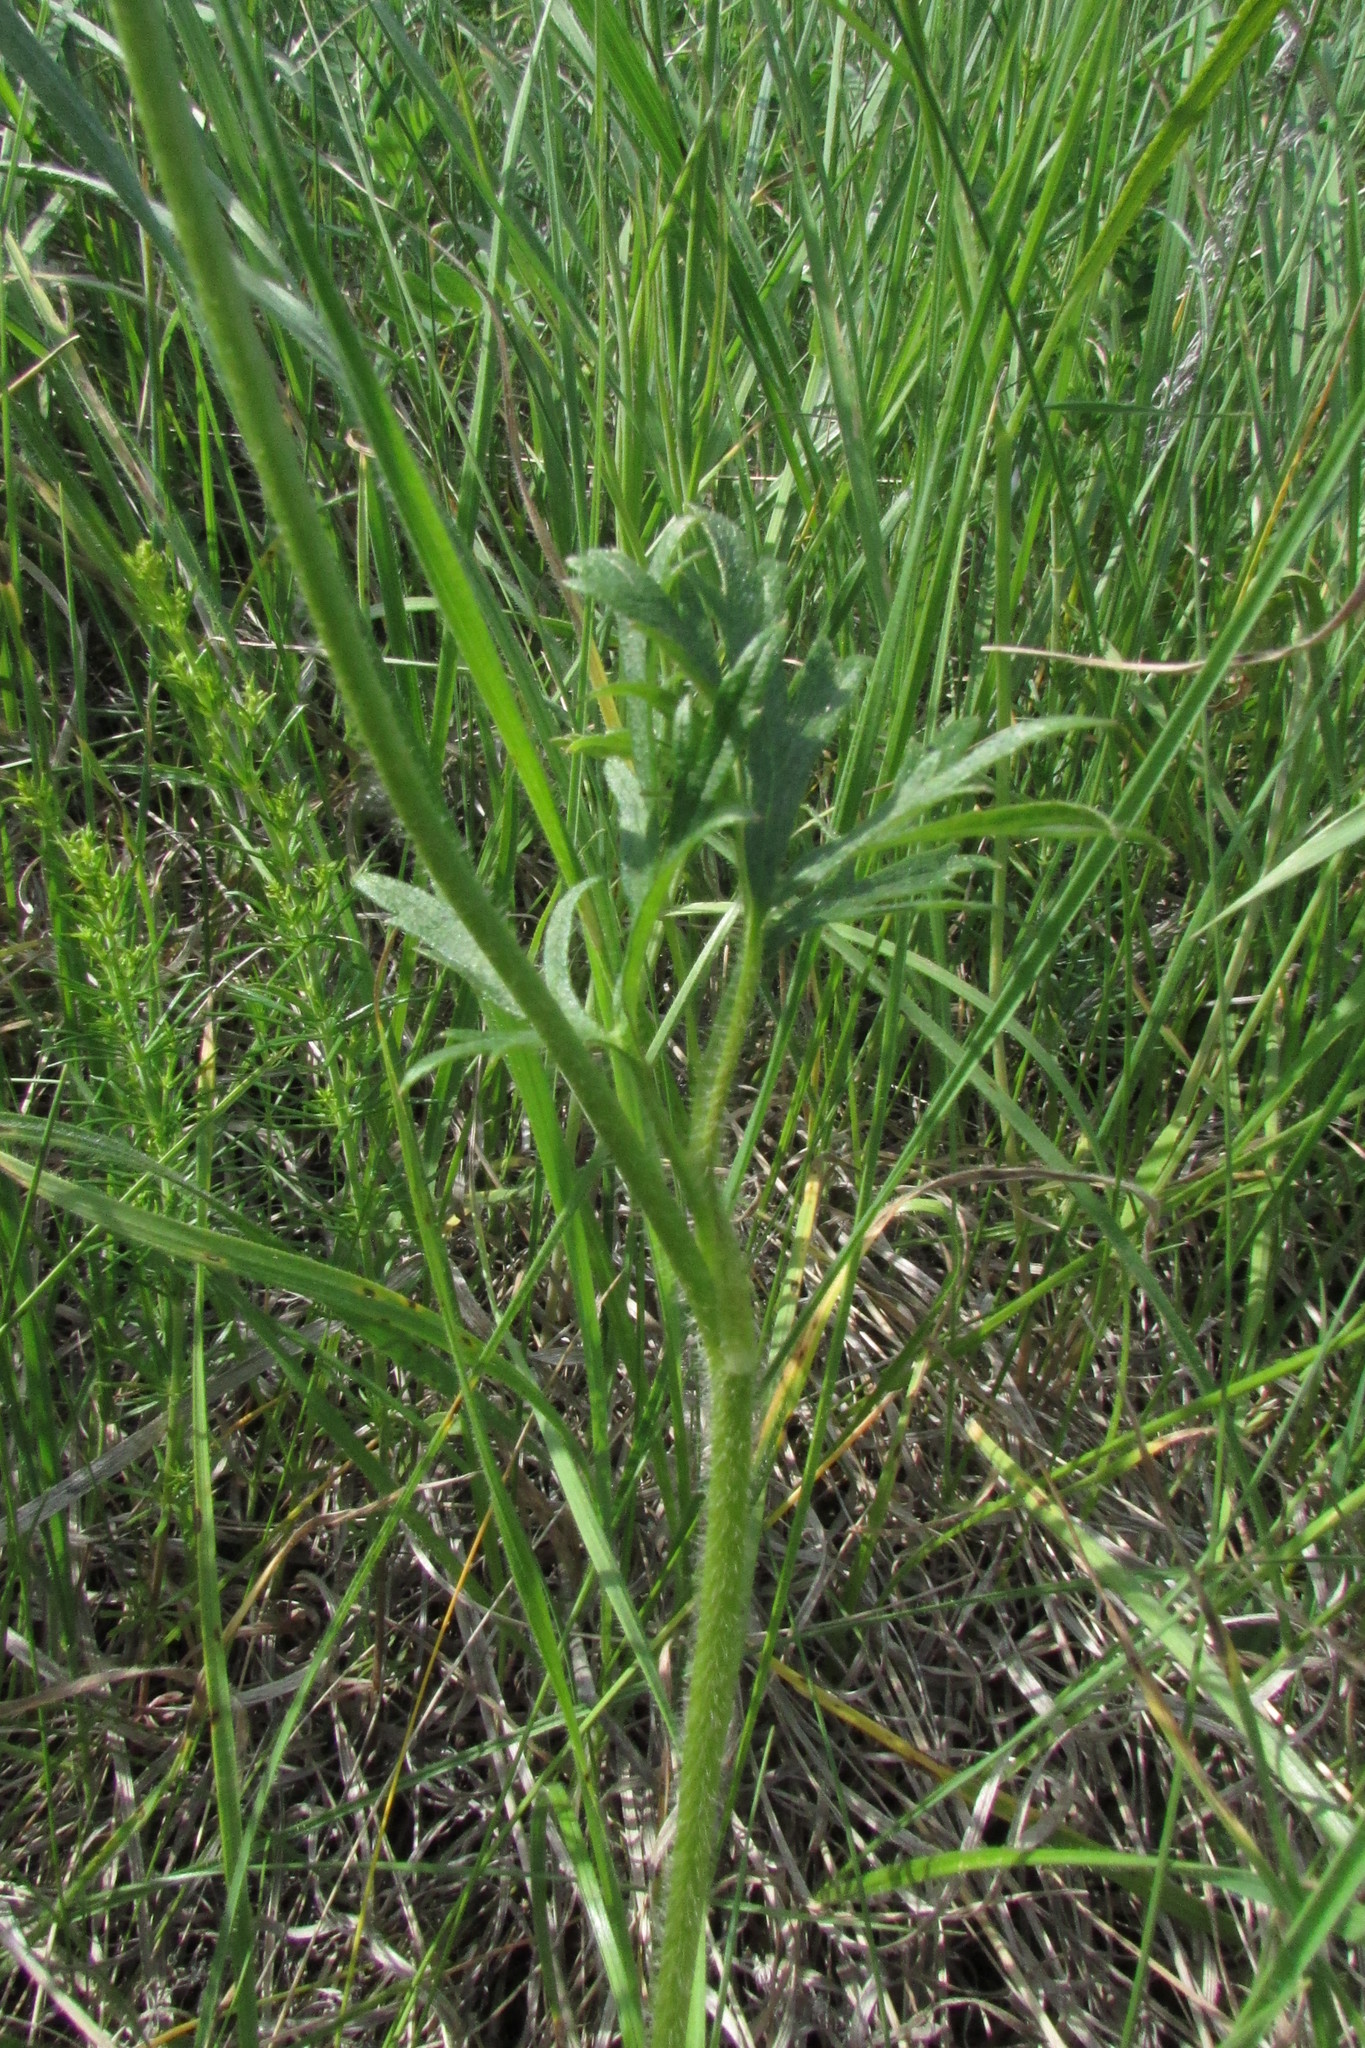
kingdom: Plantae
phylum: Tracheophyta
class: Magnoliopsida
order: Ranunculales
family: Ranunculaceae
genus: Ranunculus
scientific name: Ranunculus polyanthemos
